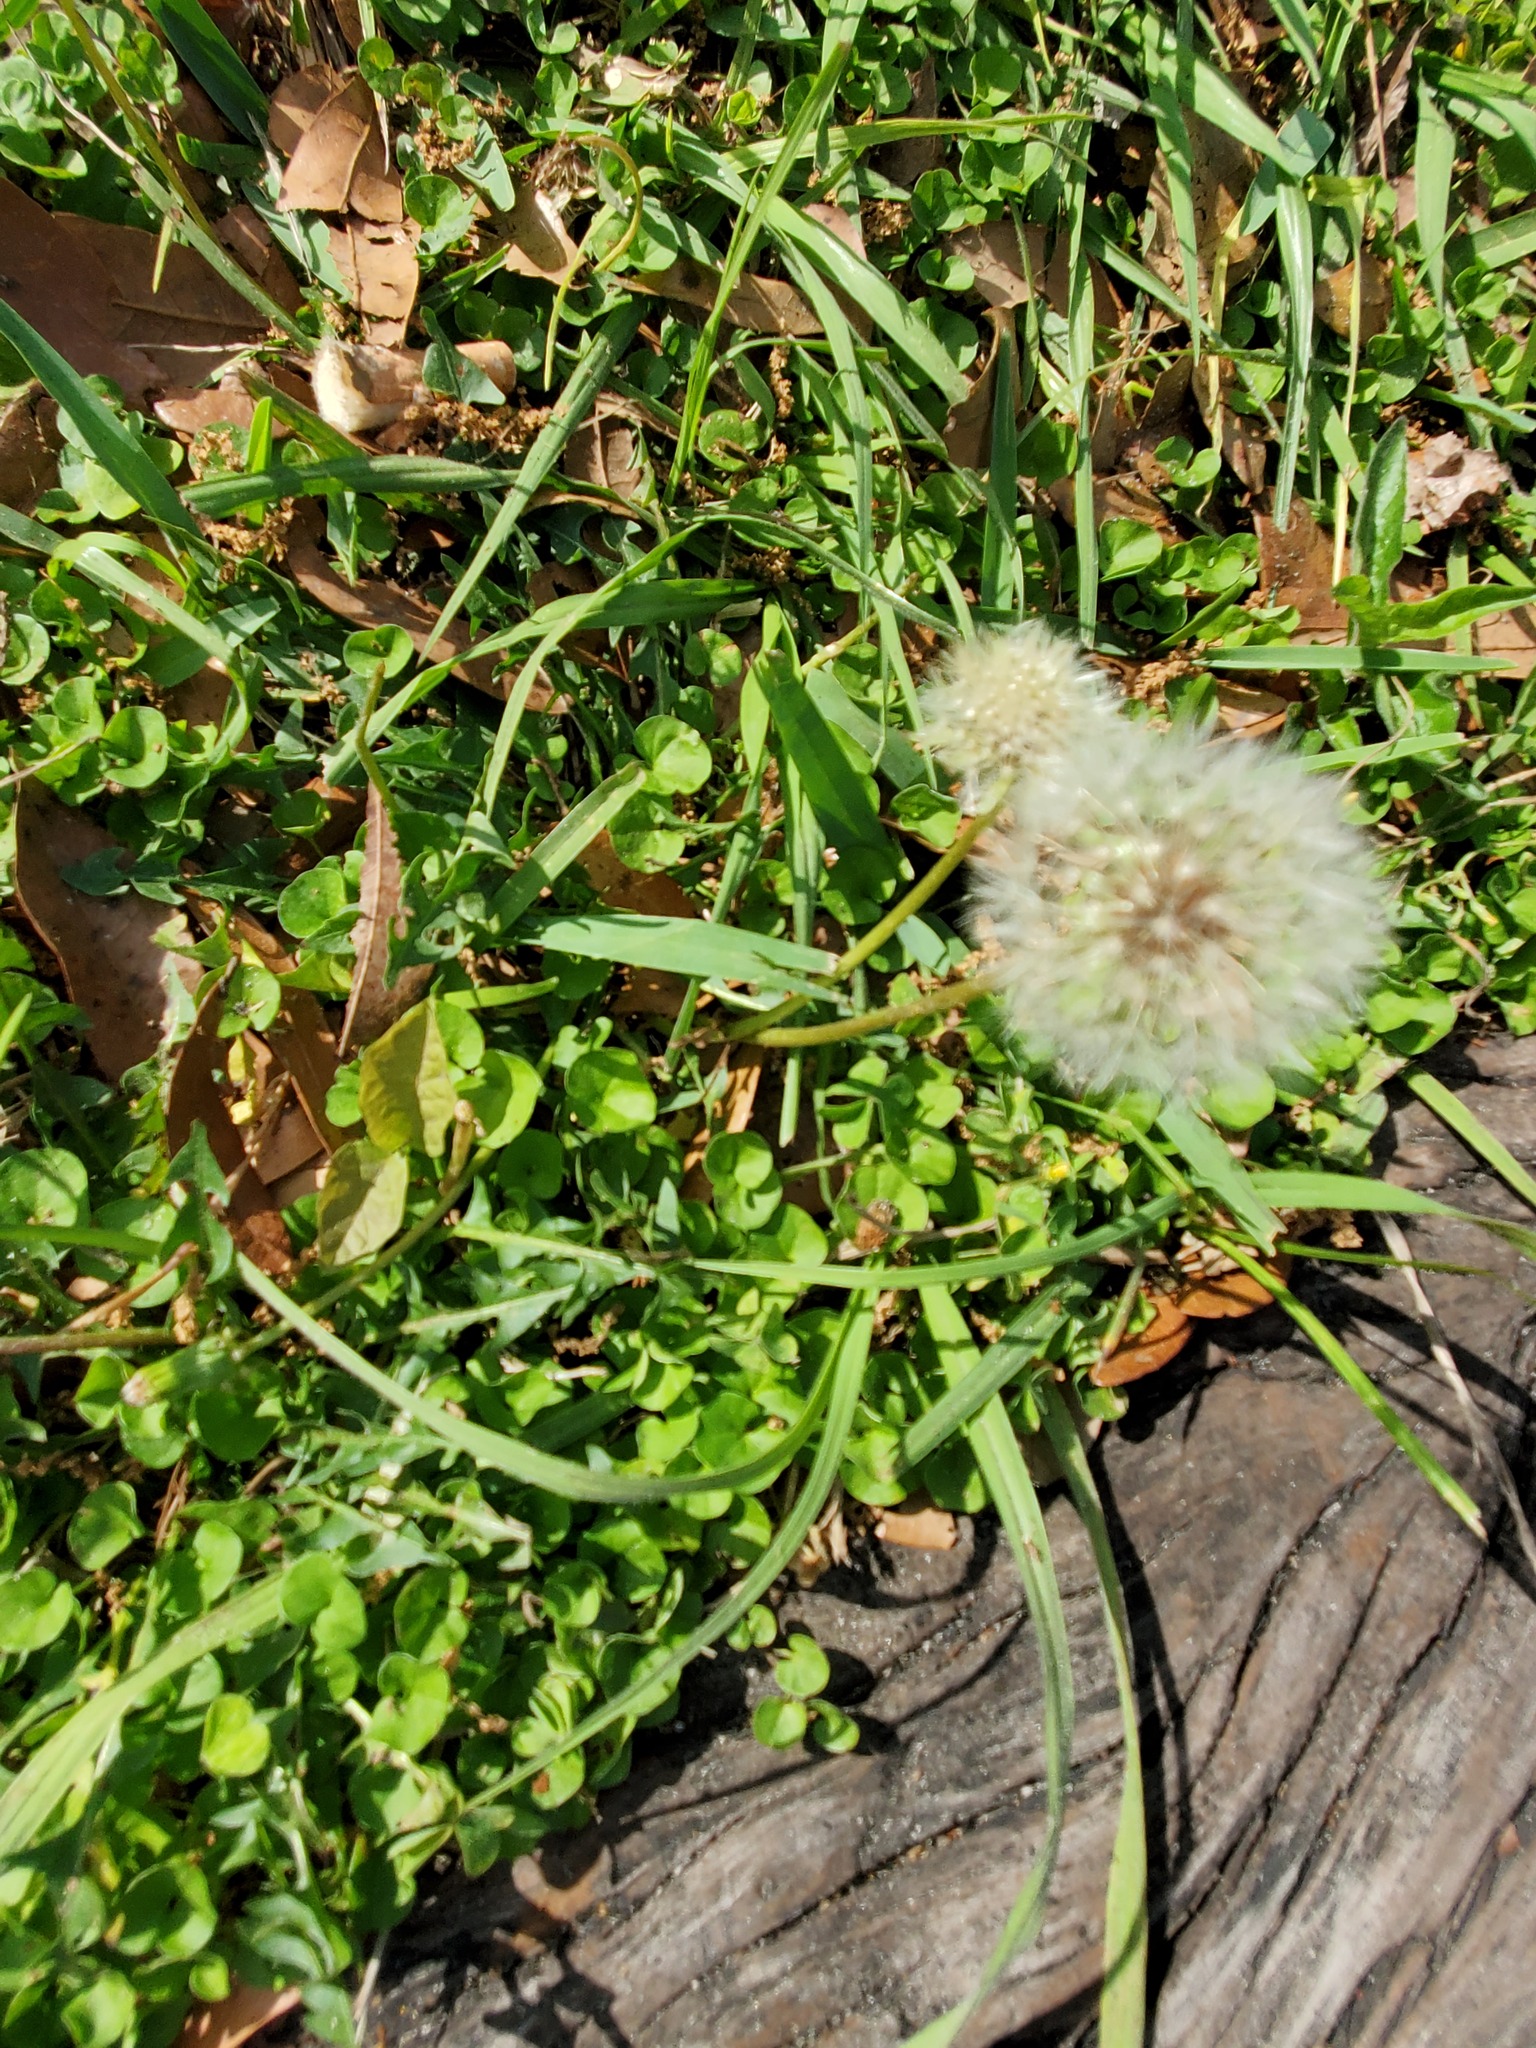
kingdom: Plantae
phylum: Tracheophyta
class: Magnoliopsida
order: Asterales
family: Asteraceae
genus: Taraxacum
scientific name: Taraxacum officinale
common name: Common dandelion
